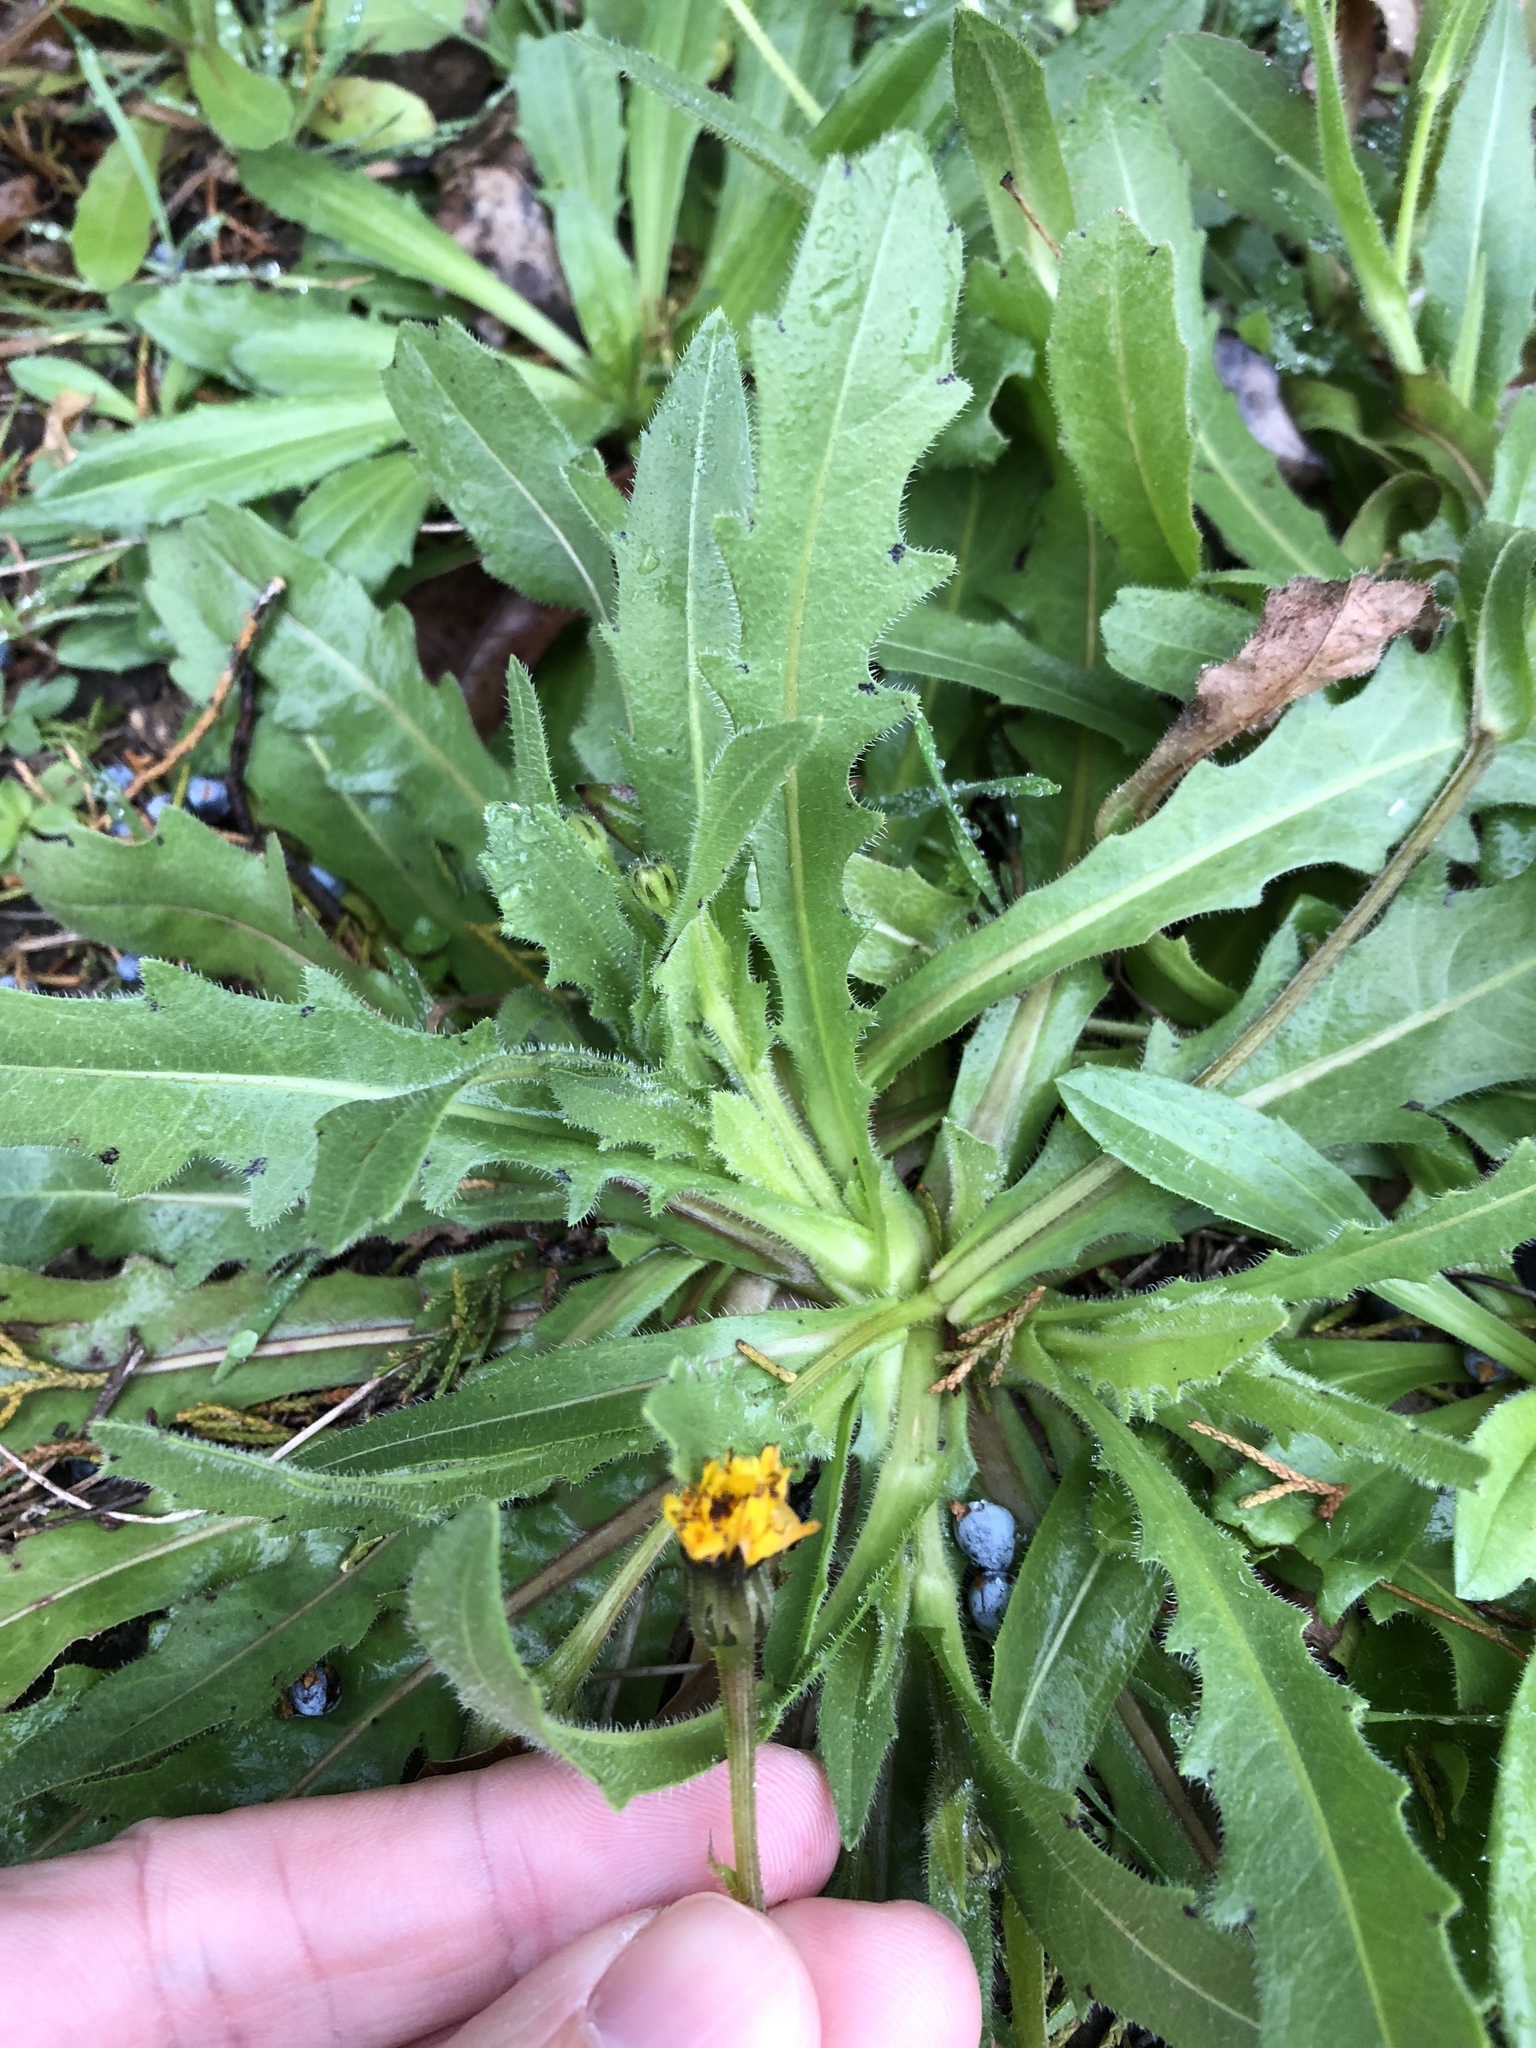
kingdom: Plantae
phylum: Tracheophyta
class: Magnoliopsida
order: Asterales
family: Asteraceae
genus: Hedypnois
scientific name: Hedypnois rhagadioloides
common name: Cretan weed
